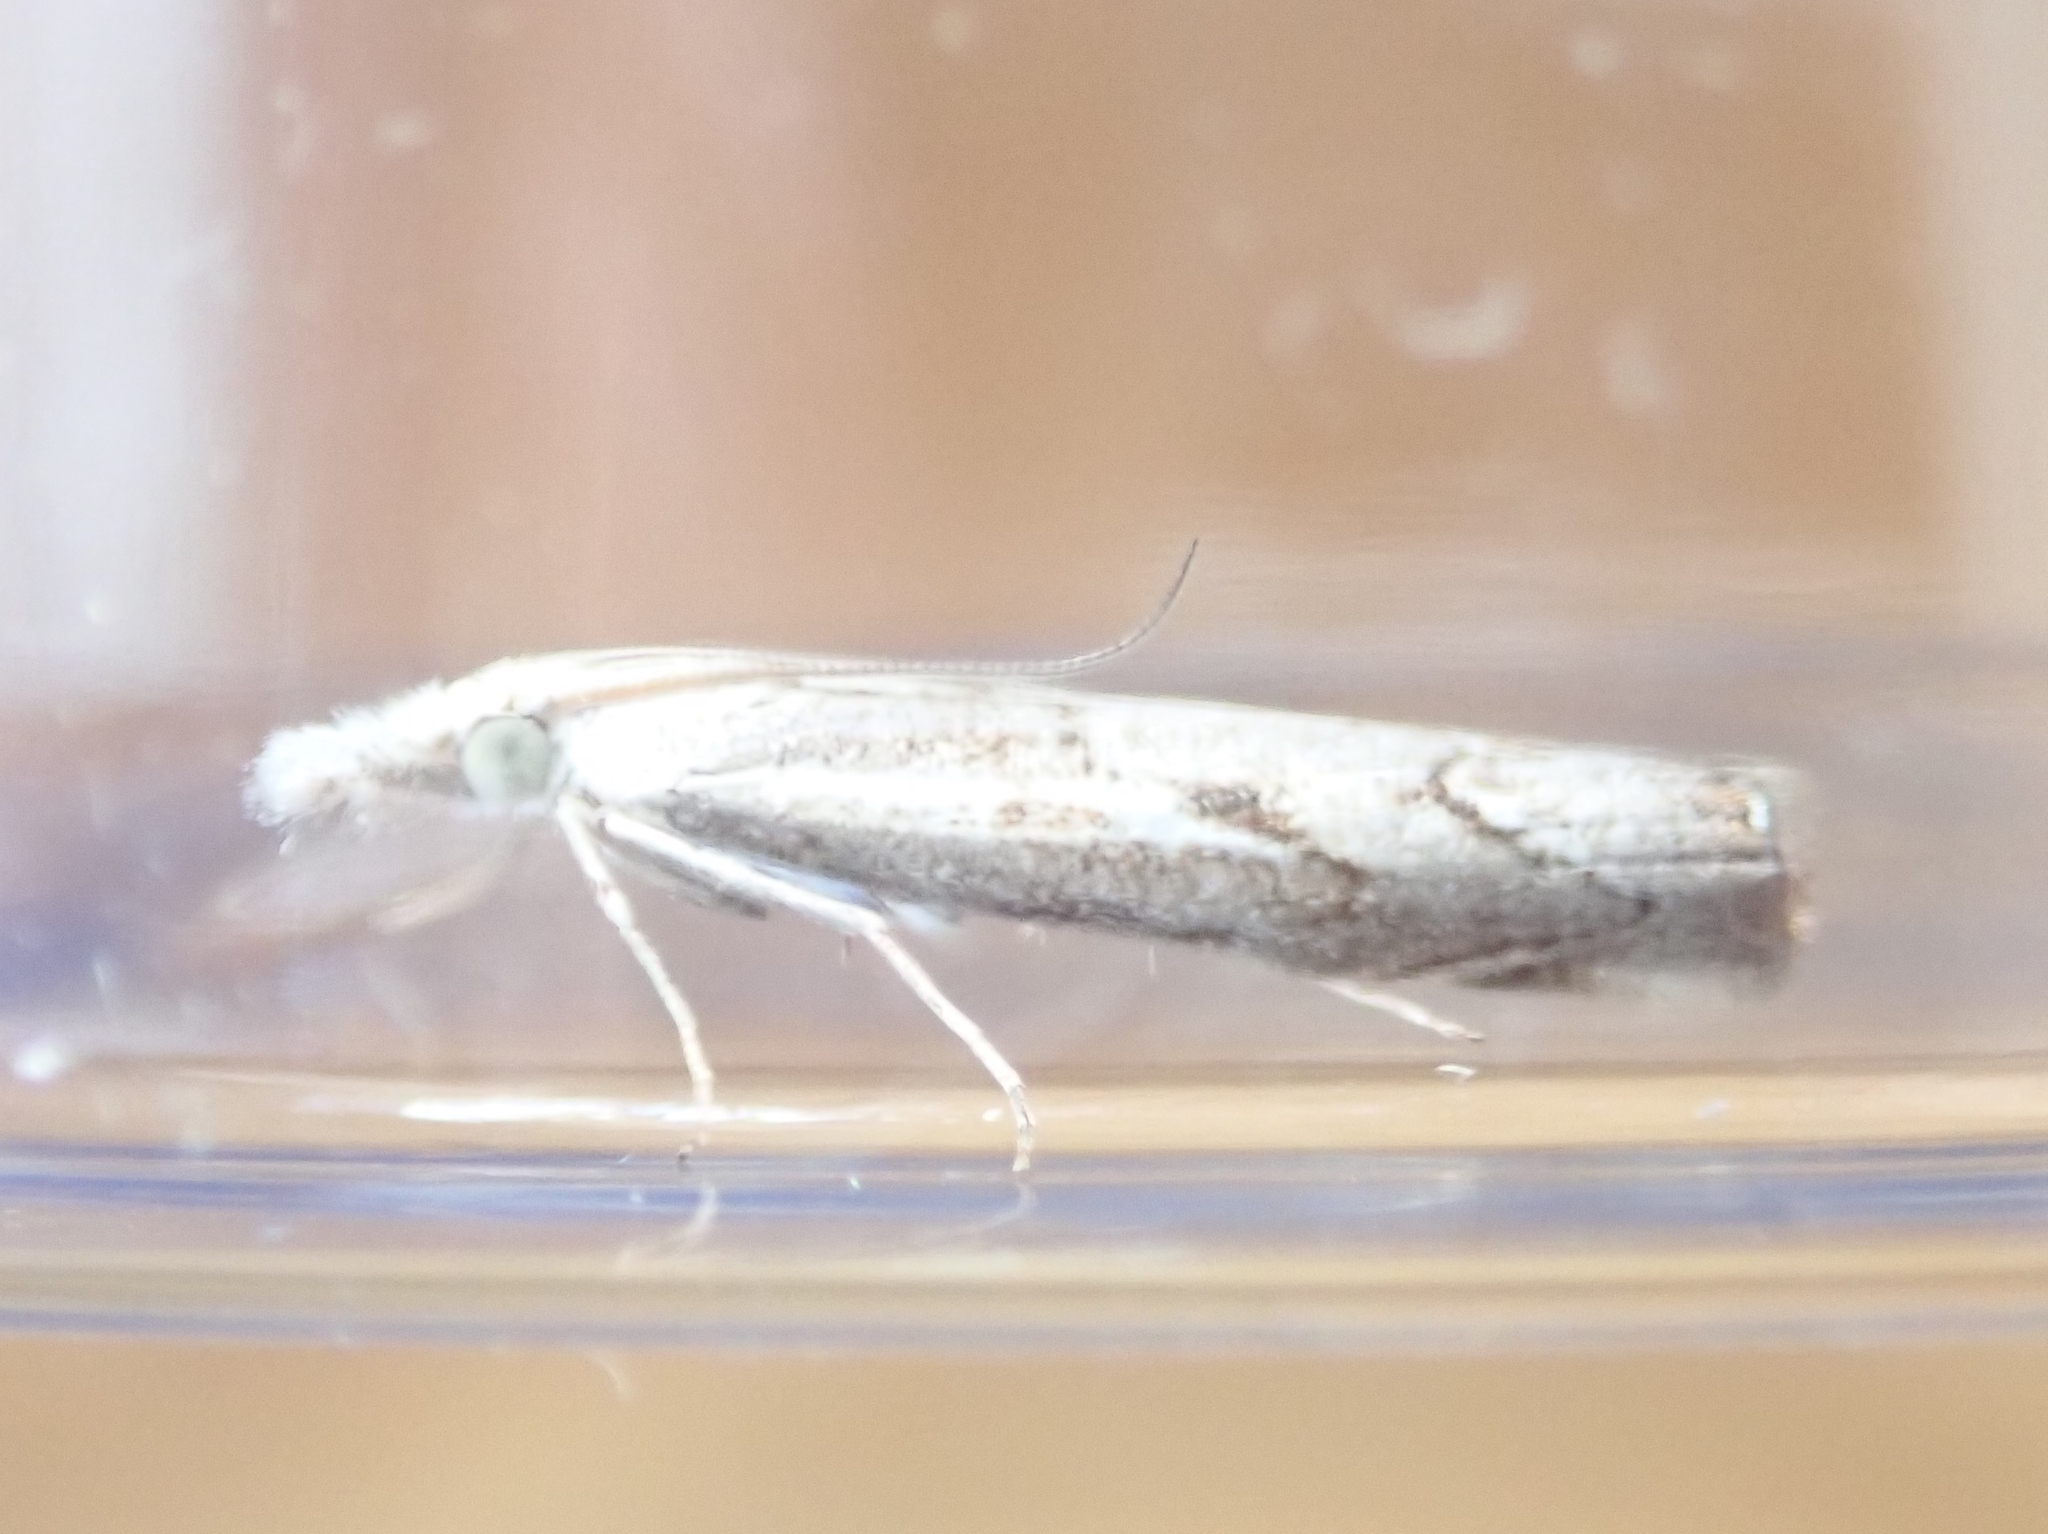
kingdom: Animalia
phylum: Arthropoda
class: Insecta
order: Lepidoptera
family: Crambidae
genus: Agriphila
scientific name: Agriphila geniculea
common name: Elbow-stripe grass-veneer
